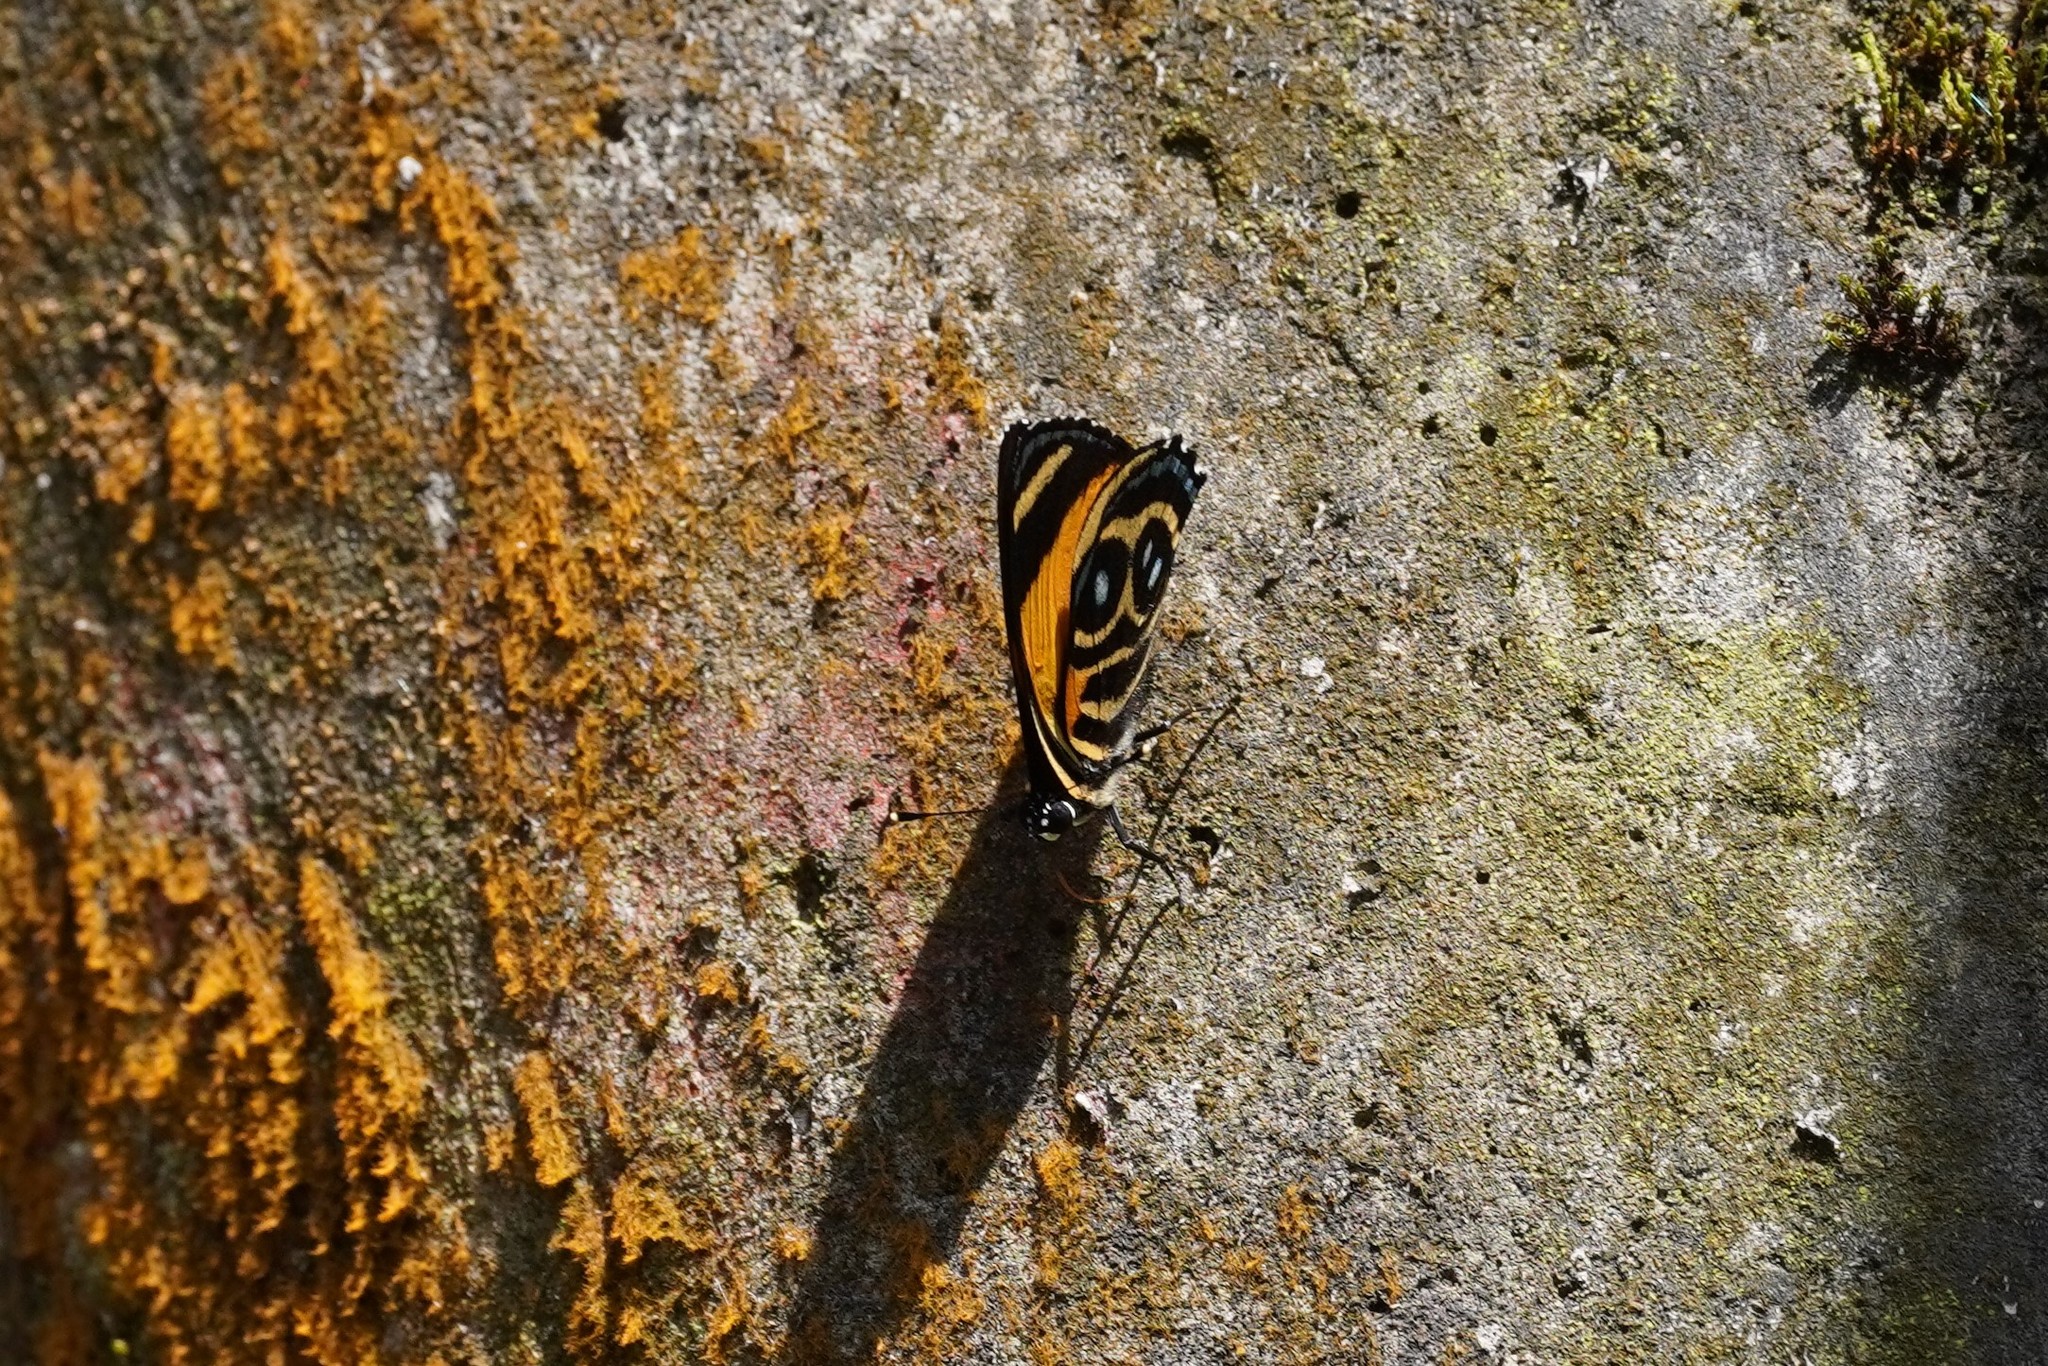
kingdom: Animalia
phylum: Arthropoda
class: Insecta
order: Lepidoptera
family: Nymphalidae
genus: Catagramma
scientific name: Catagramma tolima
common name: Blue-and-orange eighty-eight
